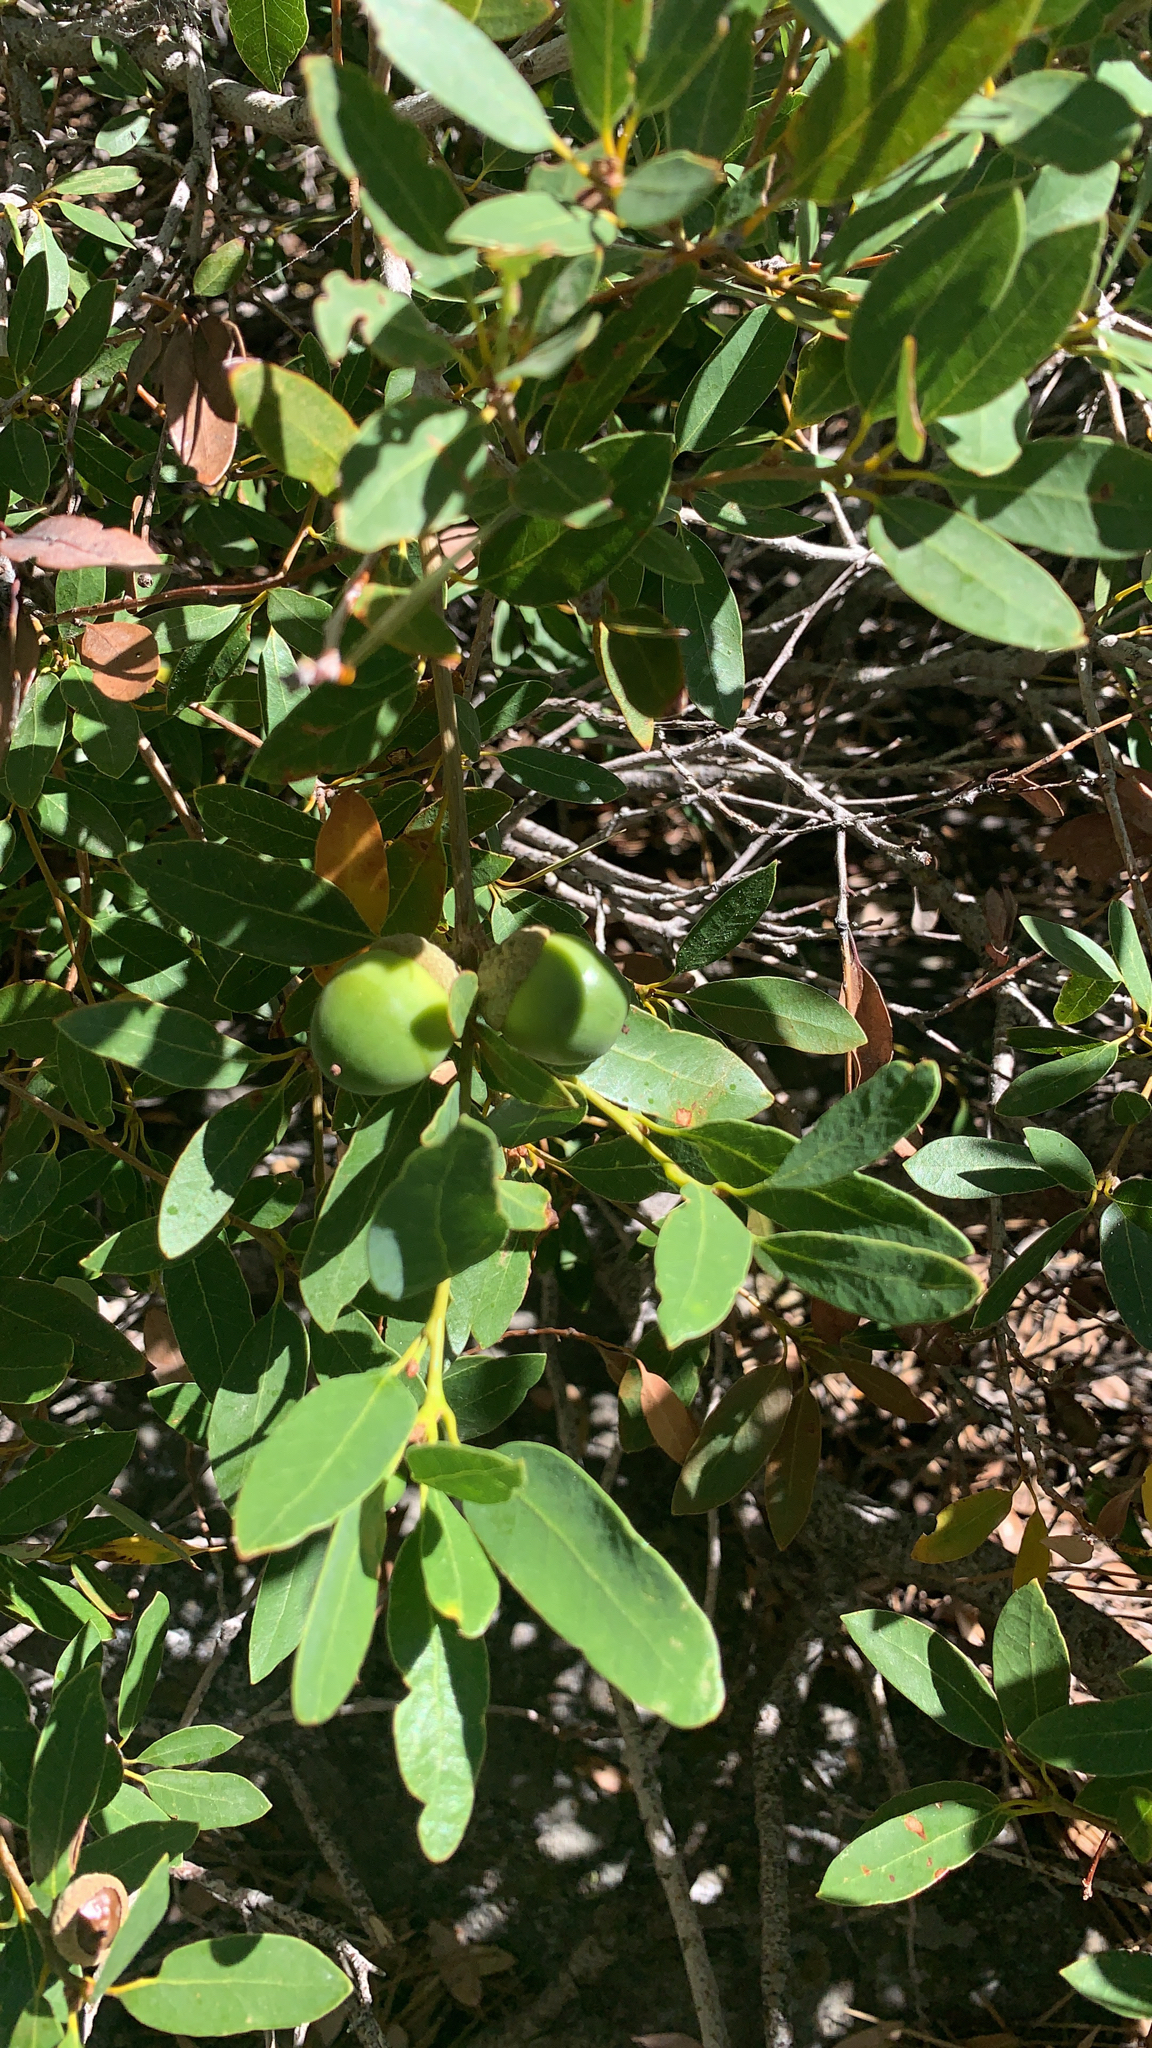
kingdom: Plantae
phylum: Tracheophyta
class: Magnoliopsida
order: Fagales
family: Fagaceae
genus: Quercus
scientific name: Quercus vacciniifolia
